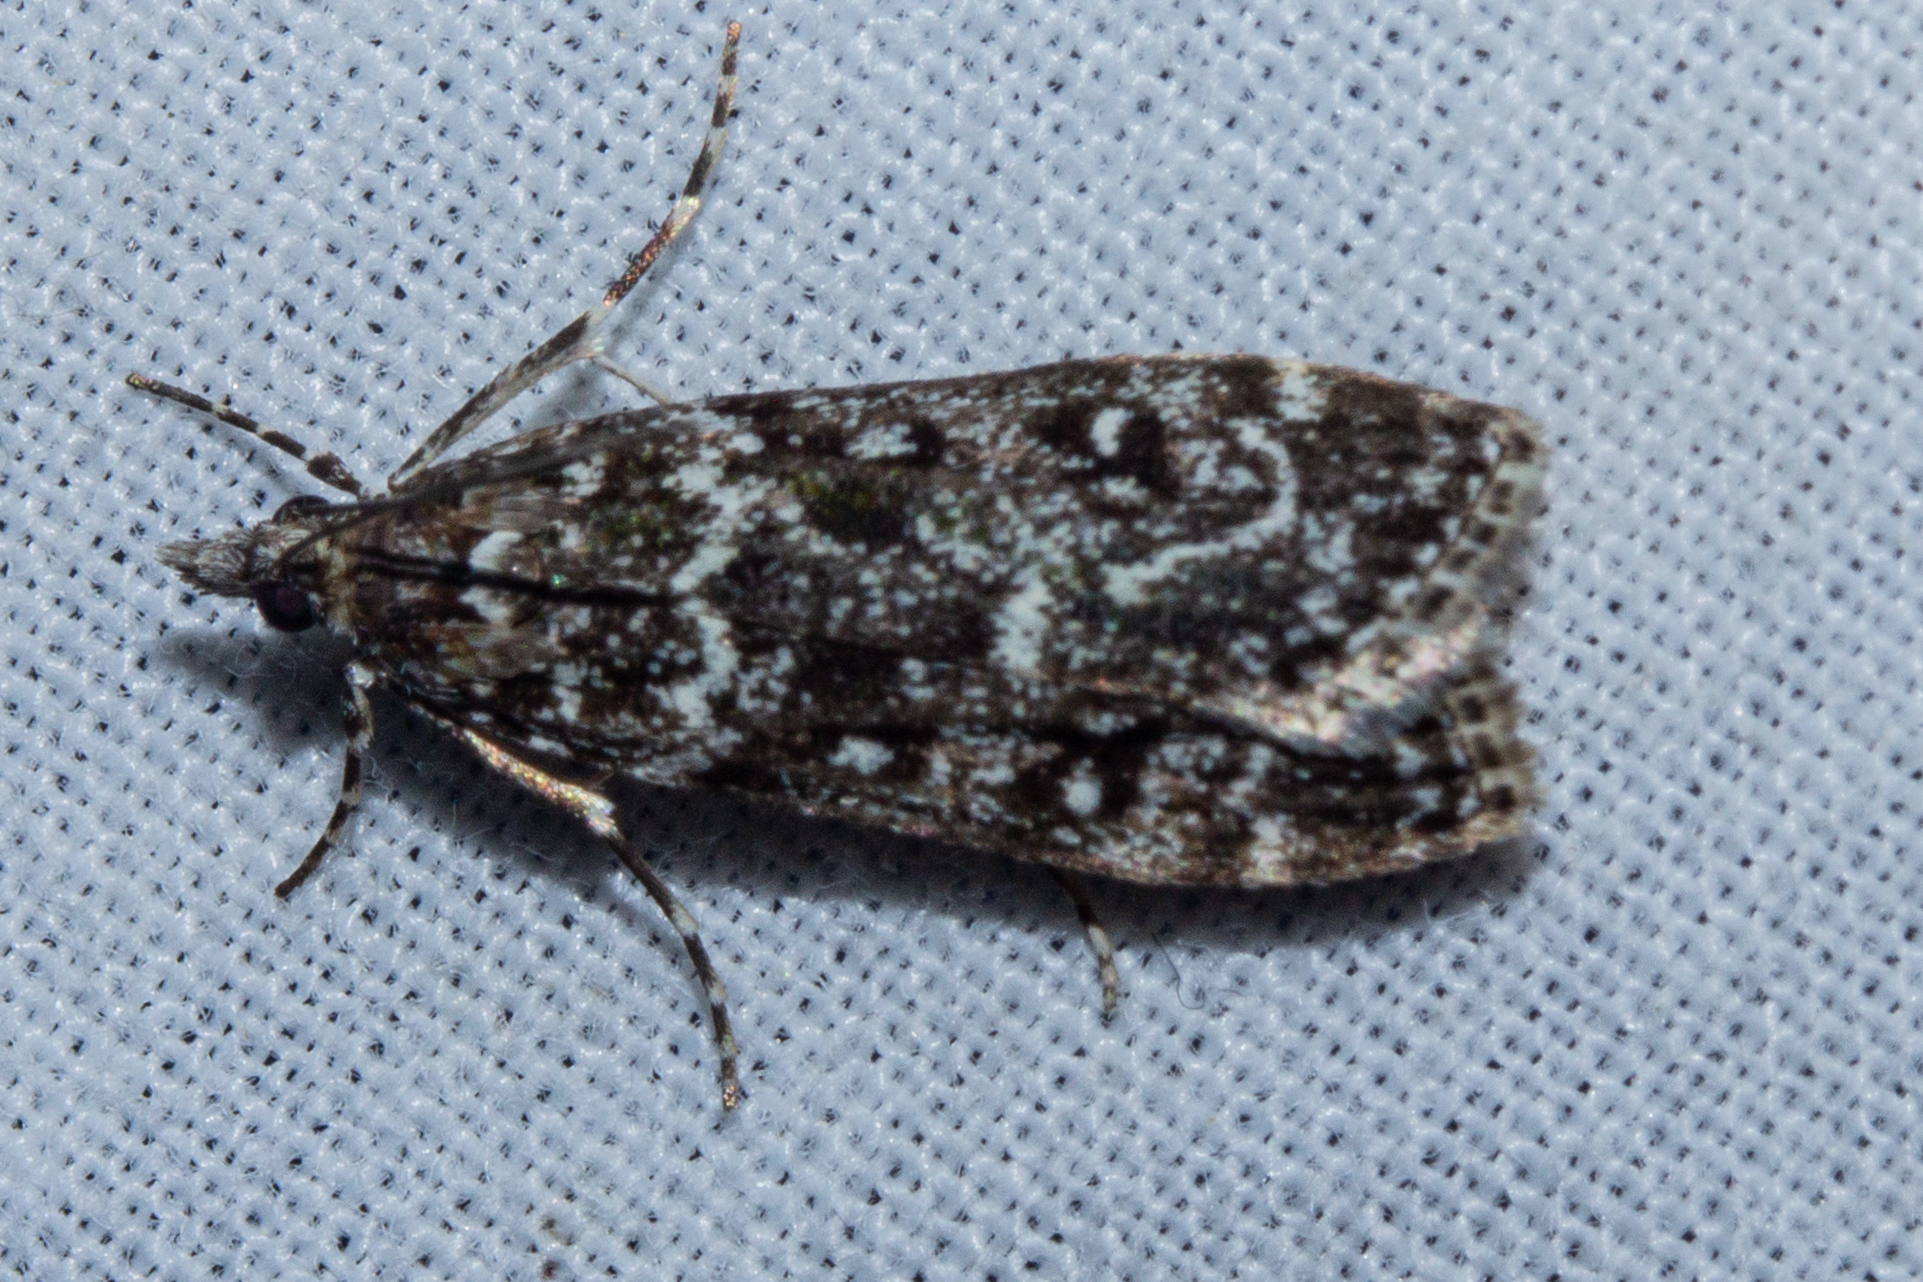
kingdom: Animalia
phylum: Arthropoda
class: Insecta
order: Lepidoptera
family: Crambidae
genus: Eudonia
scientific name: Eudonia philerga
